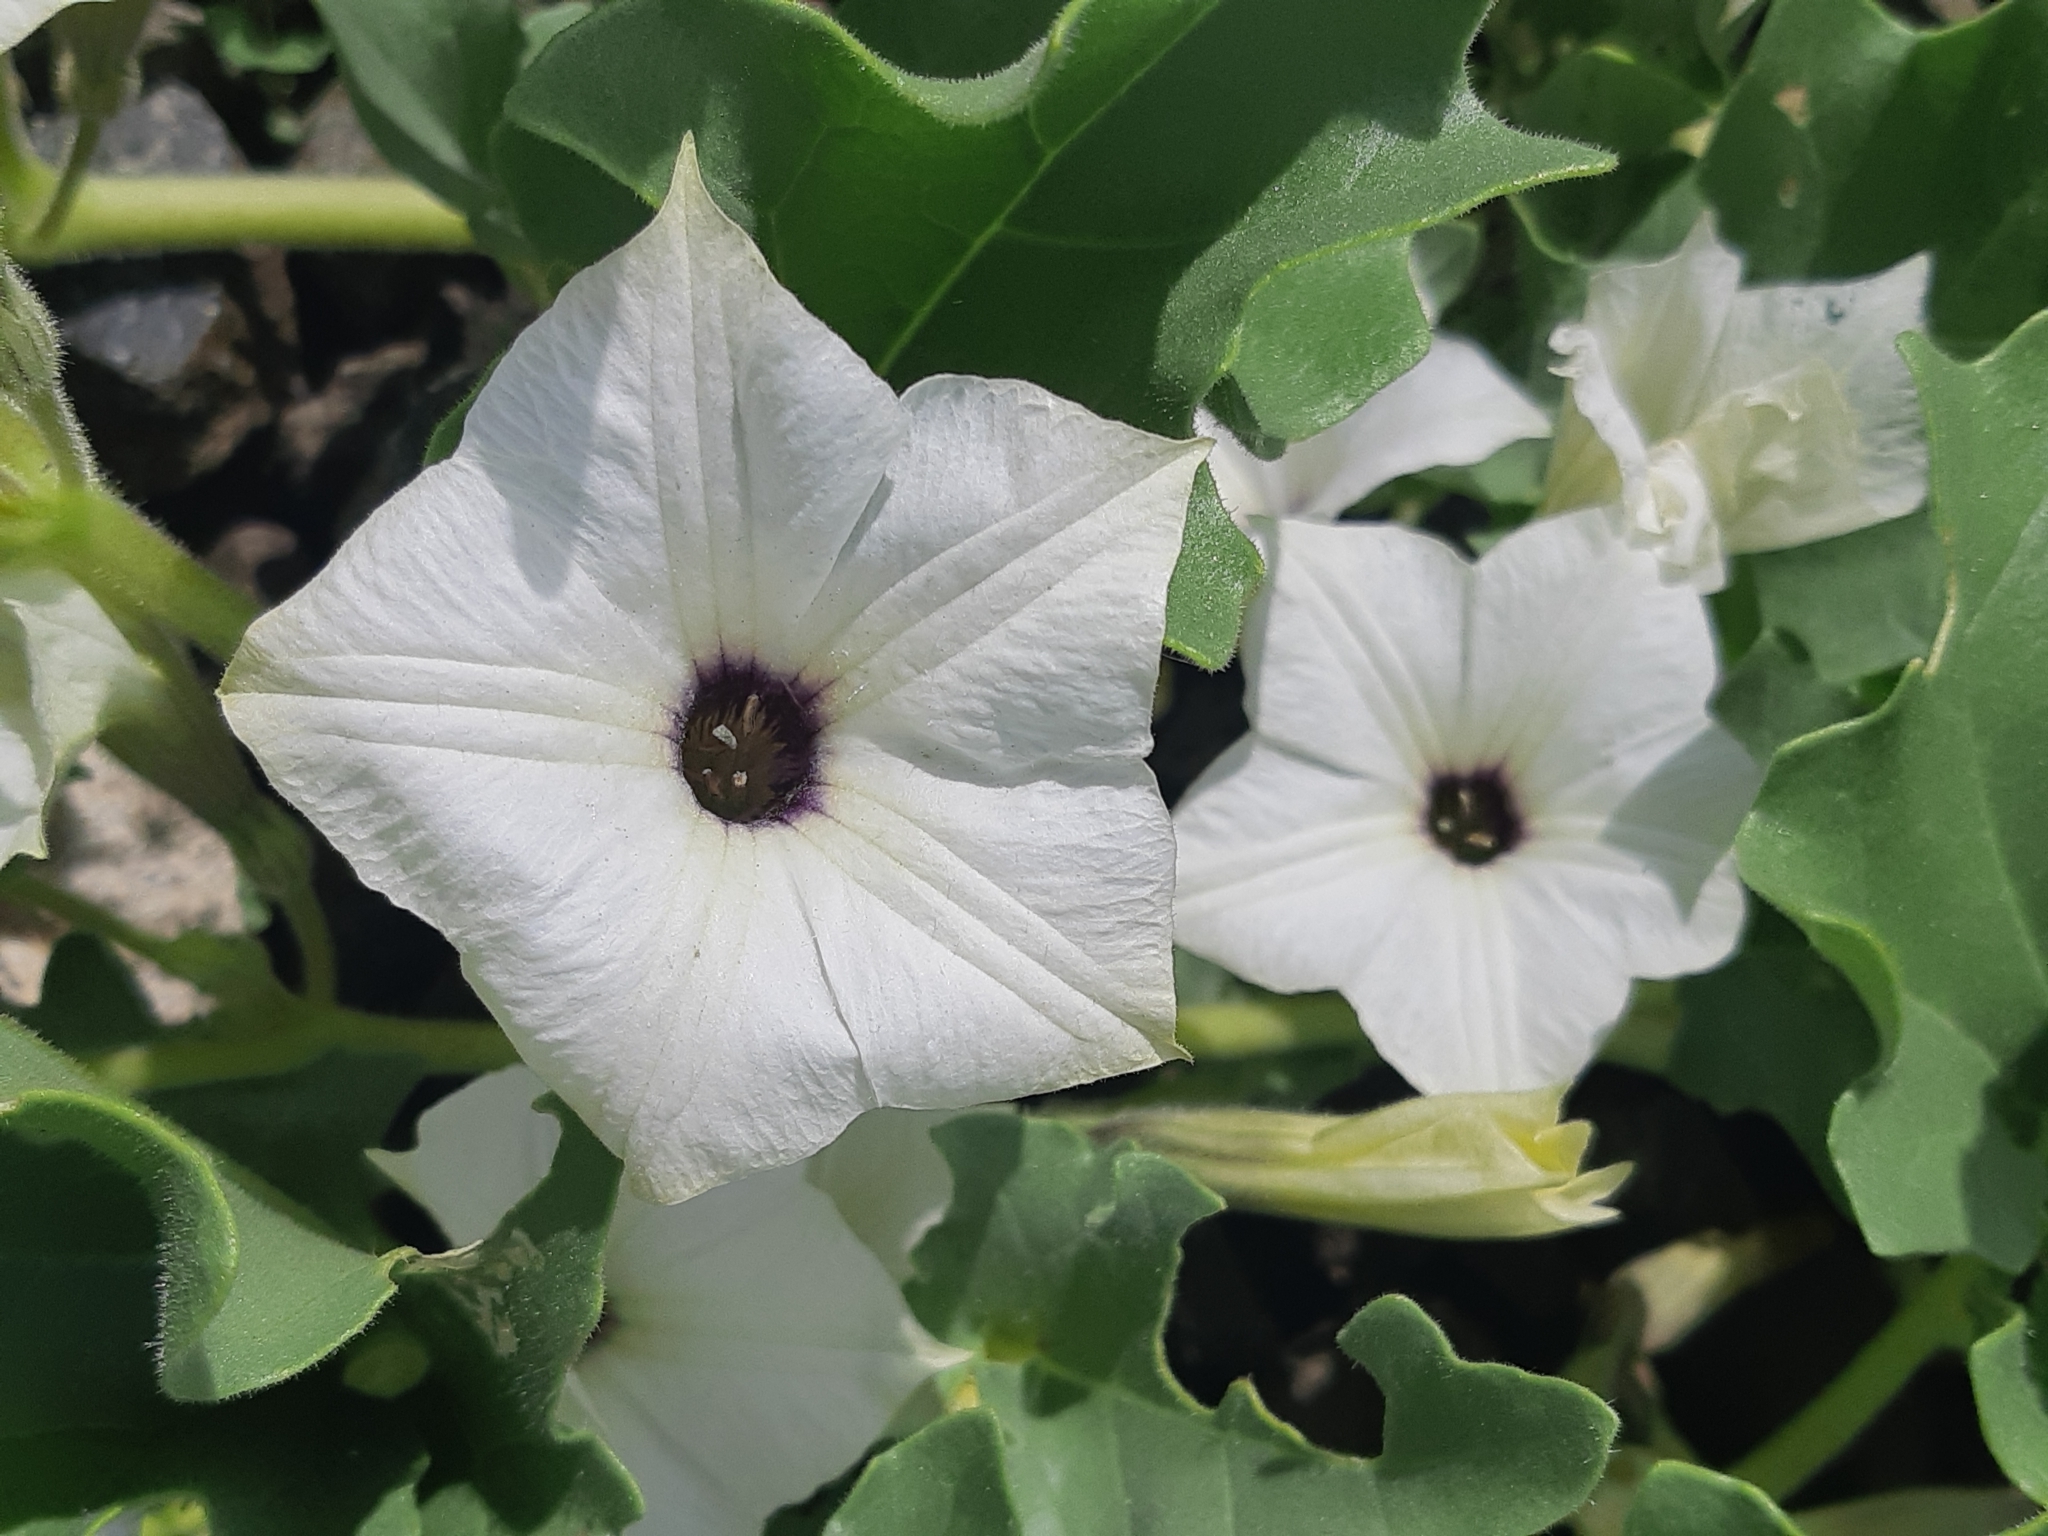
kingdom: Plantae
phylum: Tracheophyta
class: Magnoliopsida
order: Solanales
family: Solanaceae
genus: Exodeconus
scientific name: Exodeconus maritima
